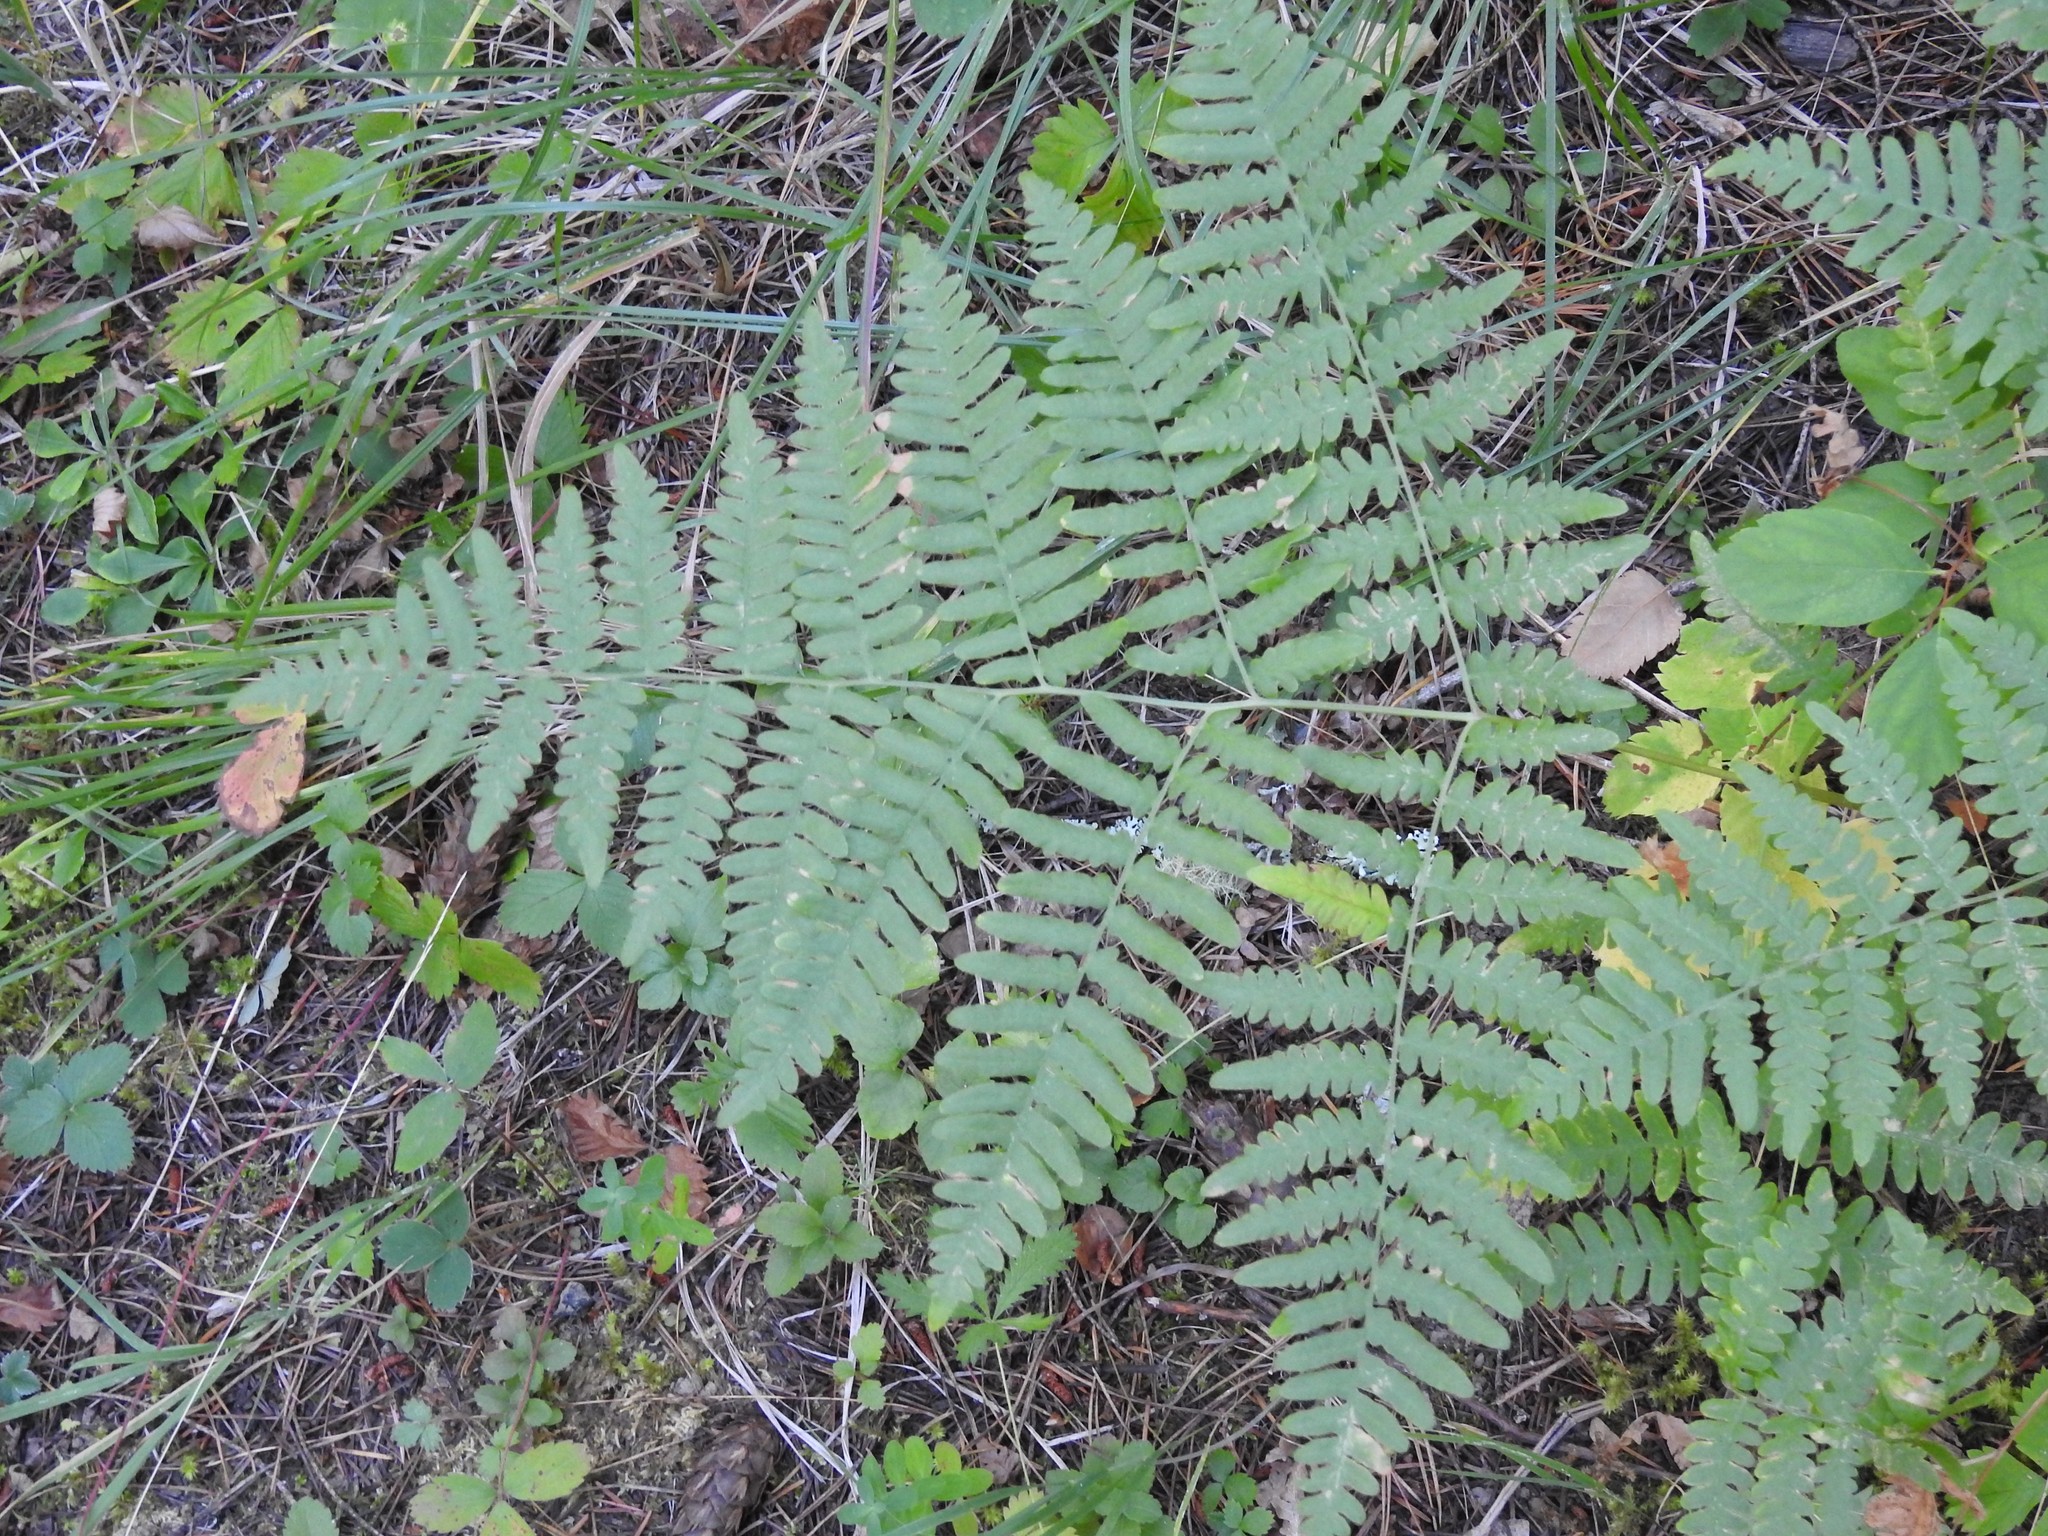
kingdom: Plantae
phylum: Tracheophyta
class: Polypodiopsida
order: Polypodiales
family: Dennstaedtiaceae
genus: Pteridium
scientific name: Pteridium aquilinum
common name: Bracken
